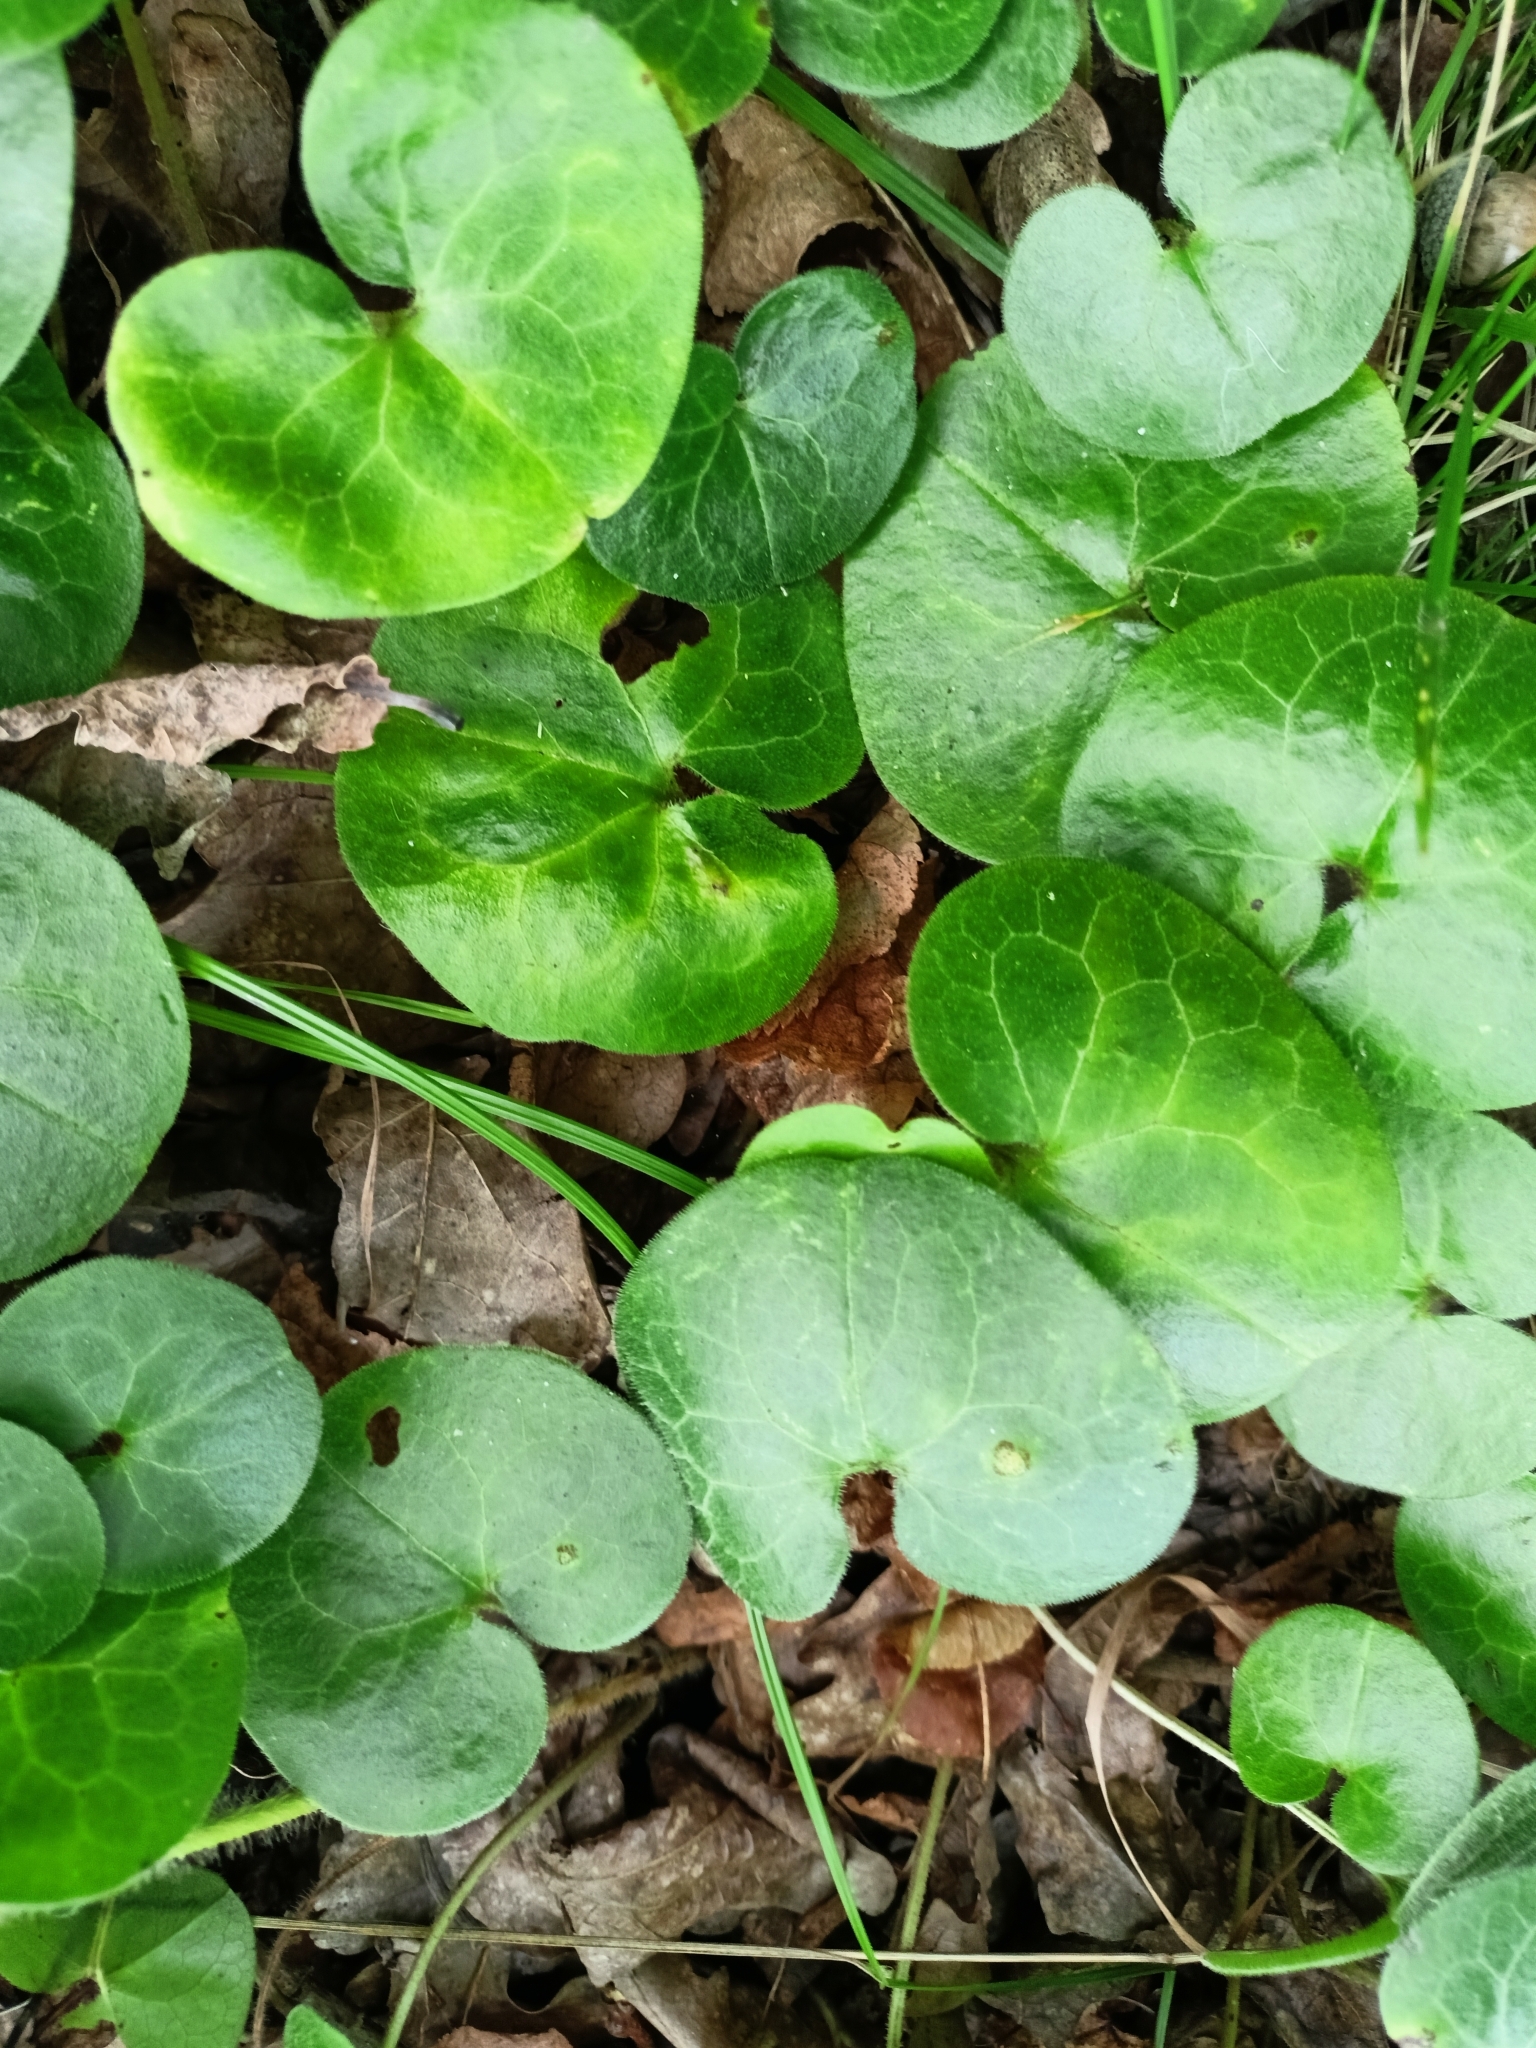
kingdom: Plantae
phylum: Tracheophyta
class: Magnoliopsida
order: Piperales
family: Aristolochiaceae
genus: Asarum
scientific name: Asarum europaeum
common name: Asarabacca
